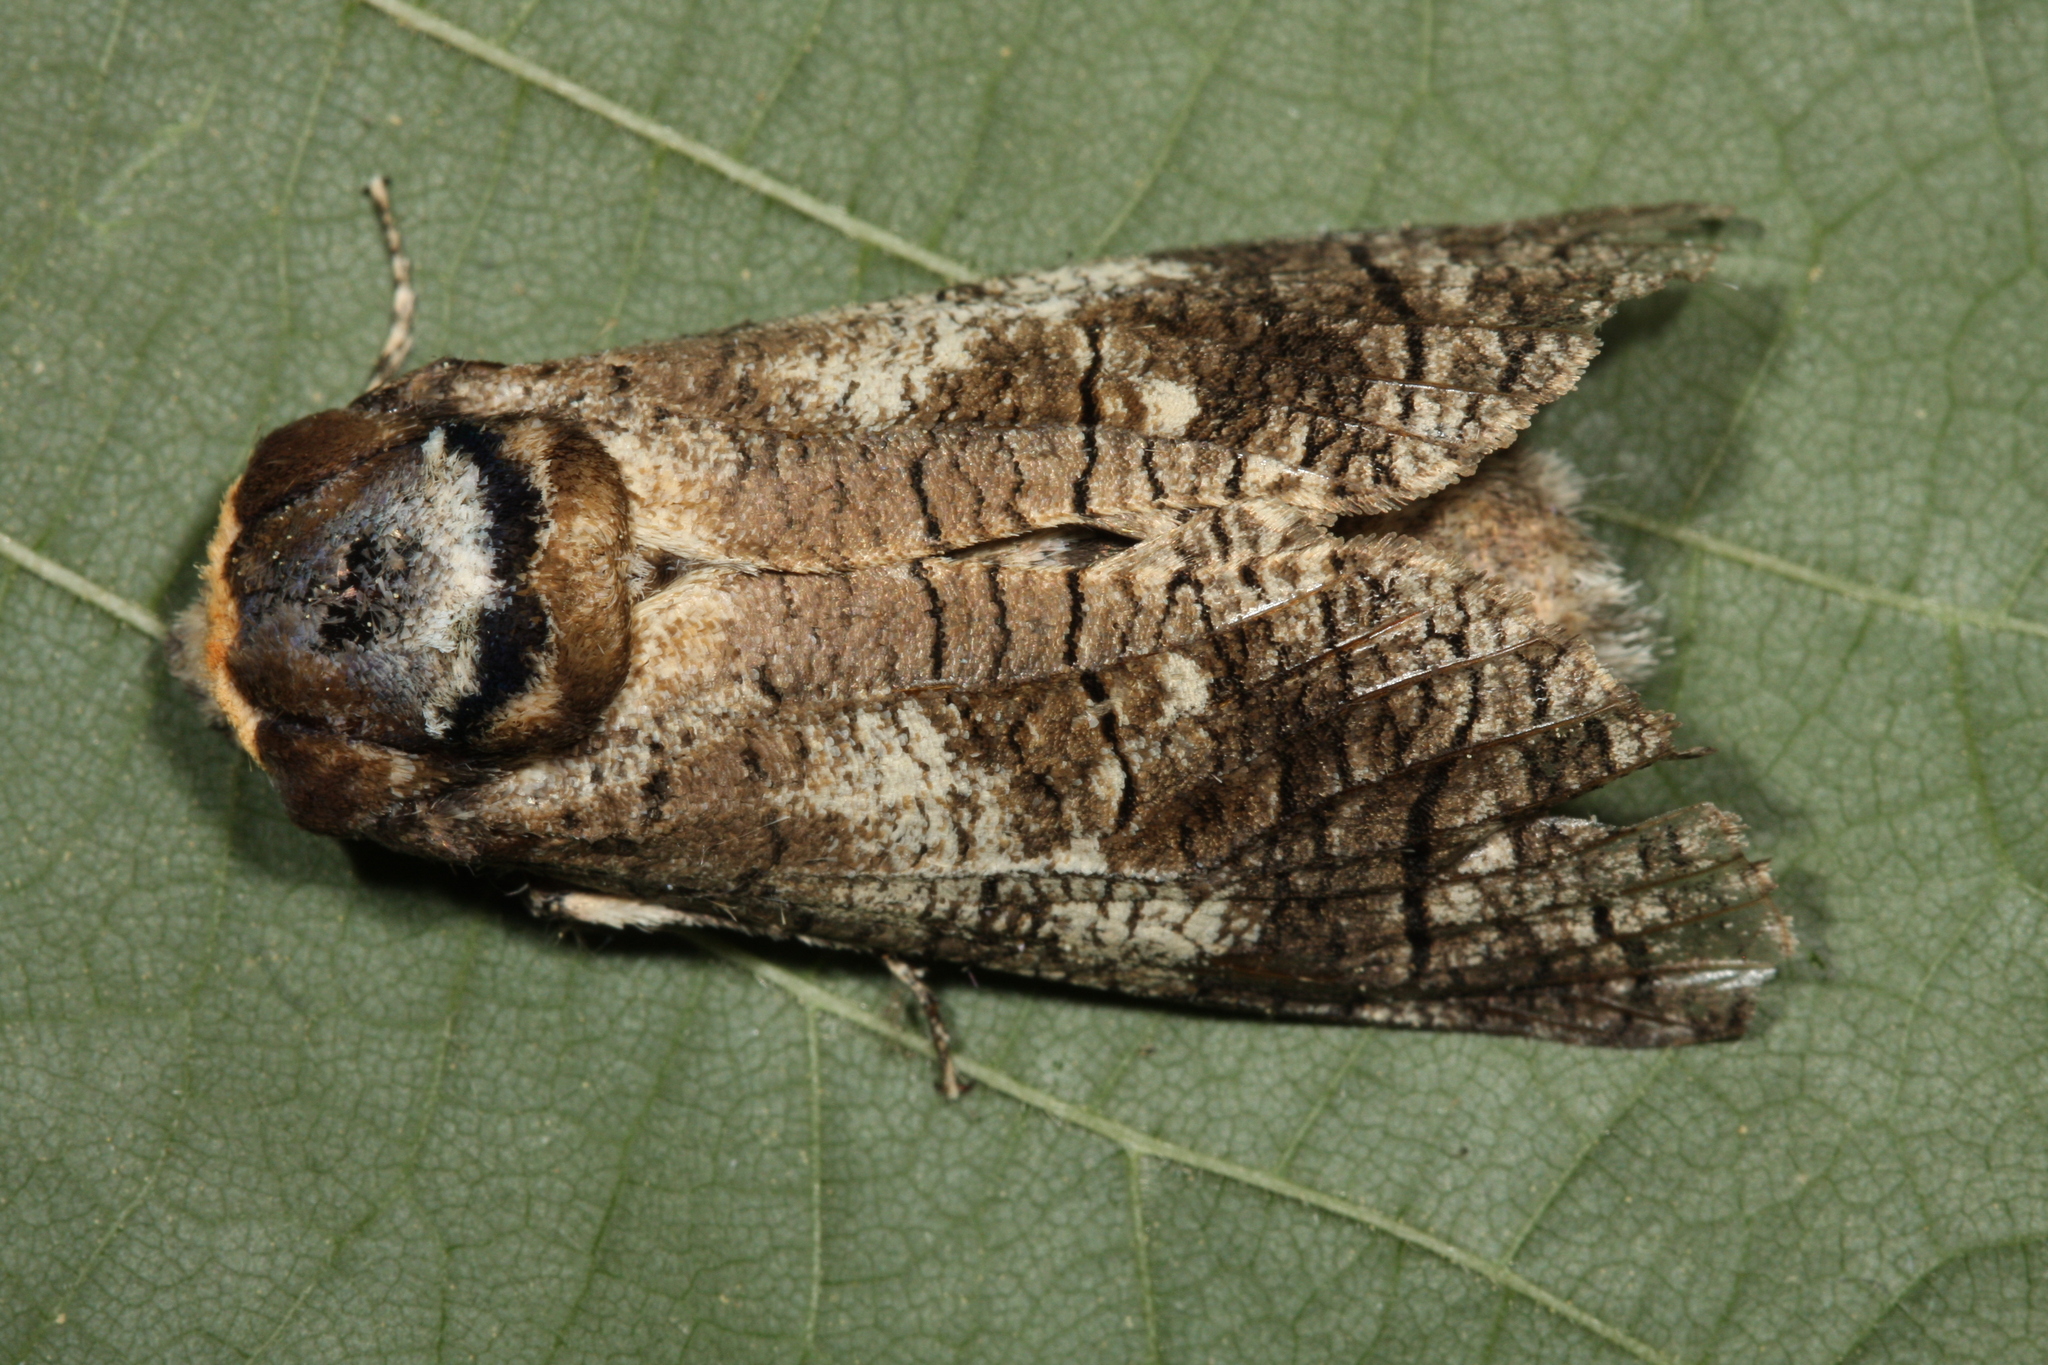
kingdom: Animalia
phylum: Arthropoda
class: Insecta
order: Lepidoptera
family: Cossidae
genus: Cossus
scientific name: Cossus cossus
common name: Goat moth
